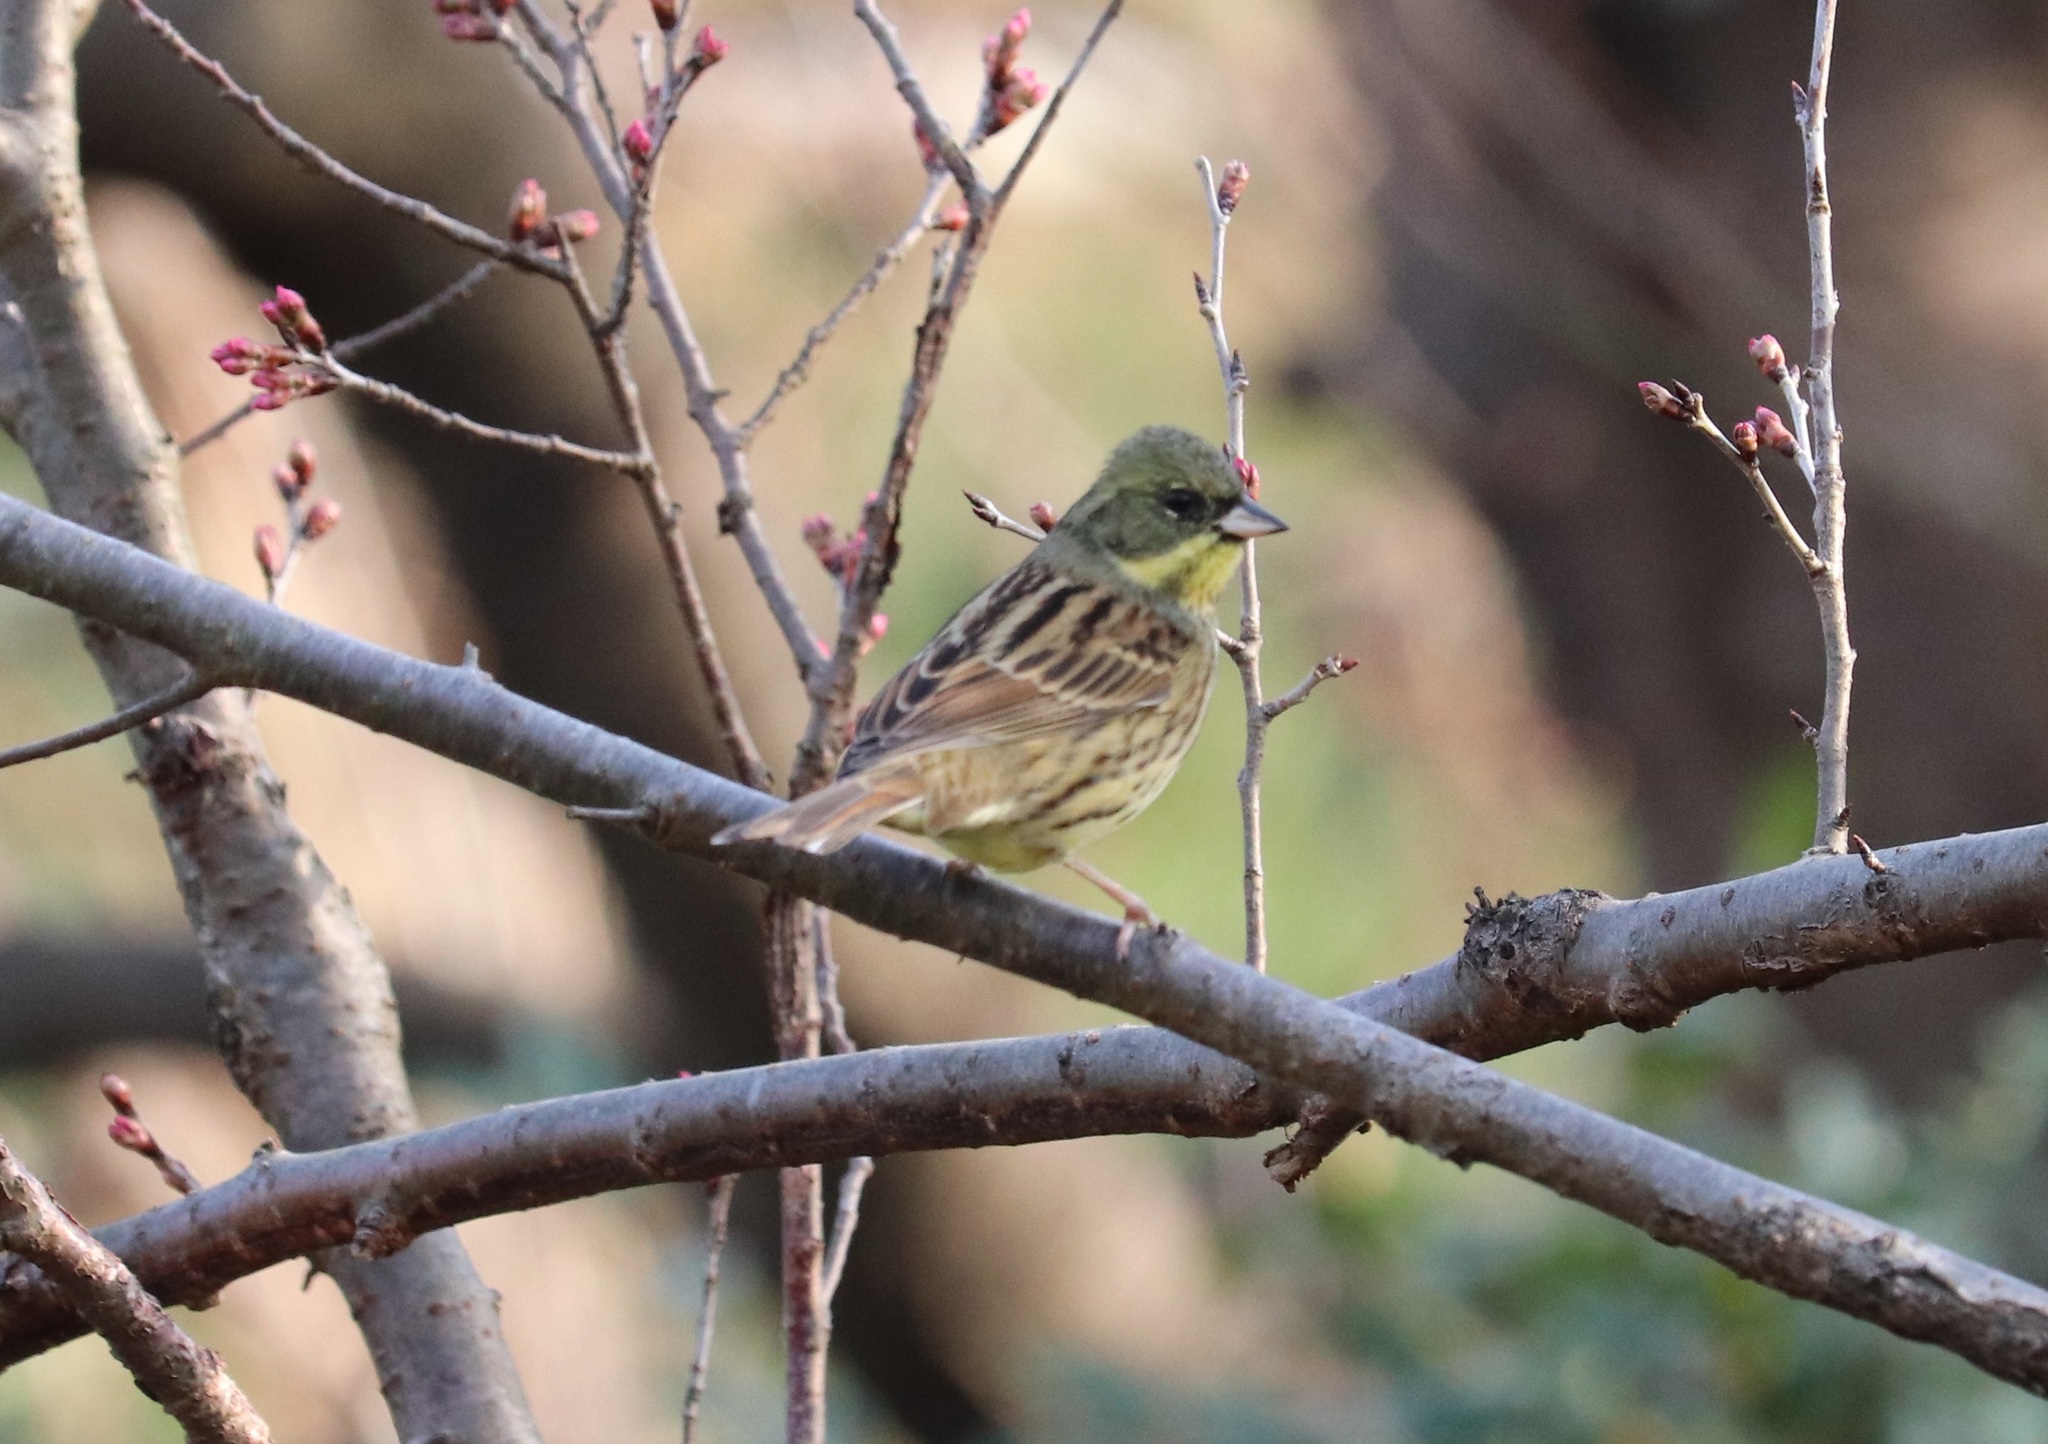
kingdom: Animalia
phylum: Chordata
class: Aves
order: Passeriformes
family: Emberizidae
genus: Emberiza
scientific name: Emberiza personata
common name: Masked bunting
